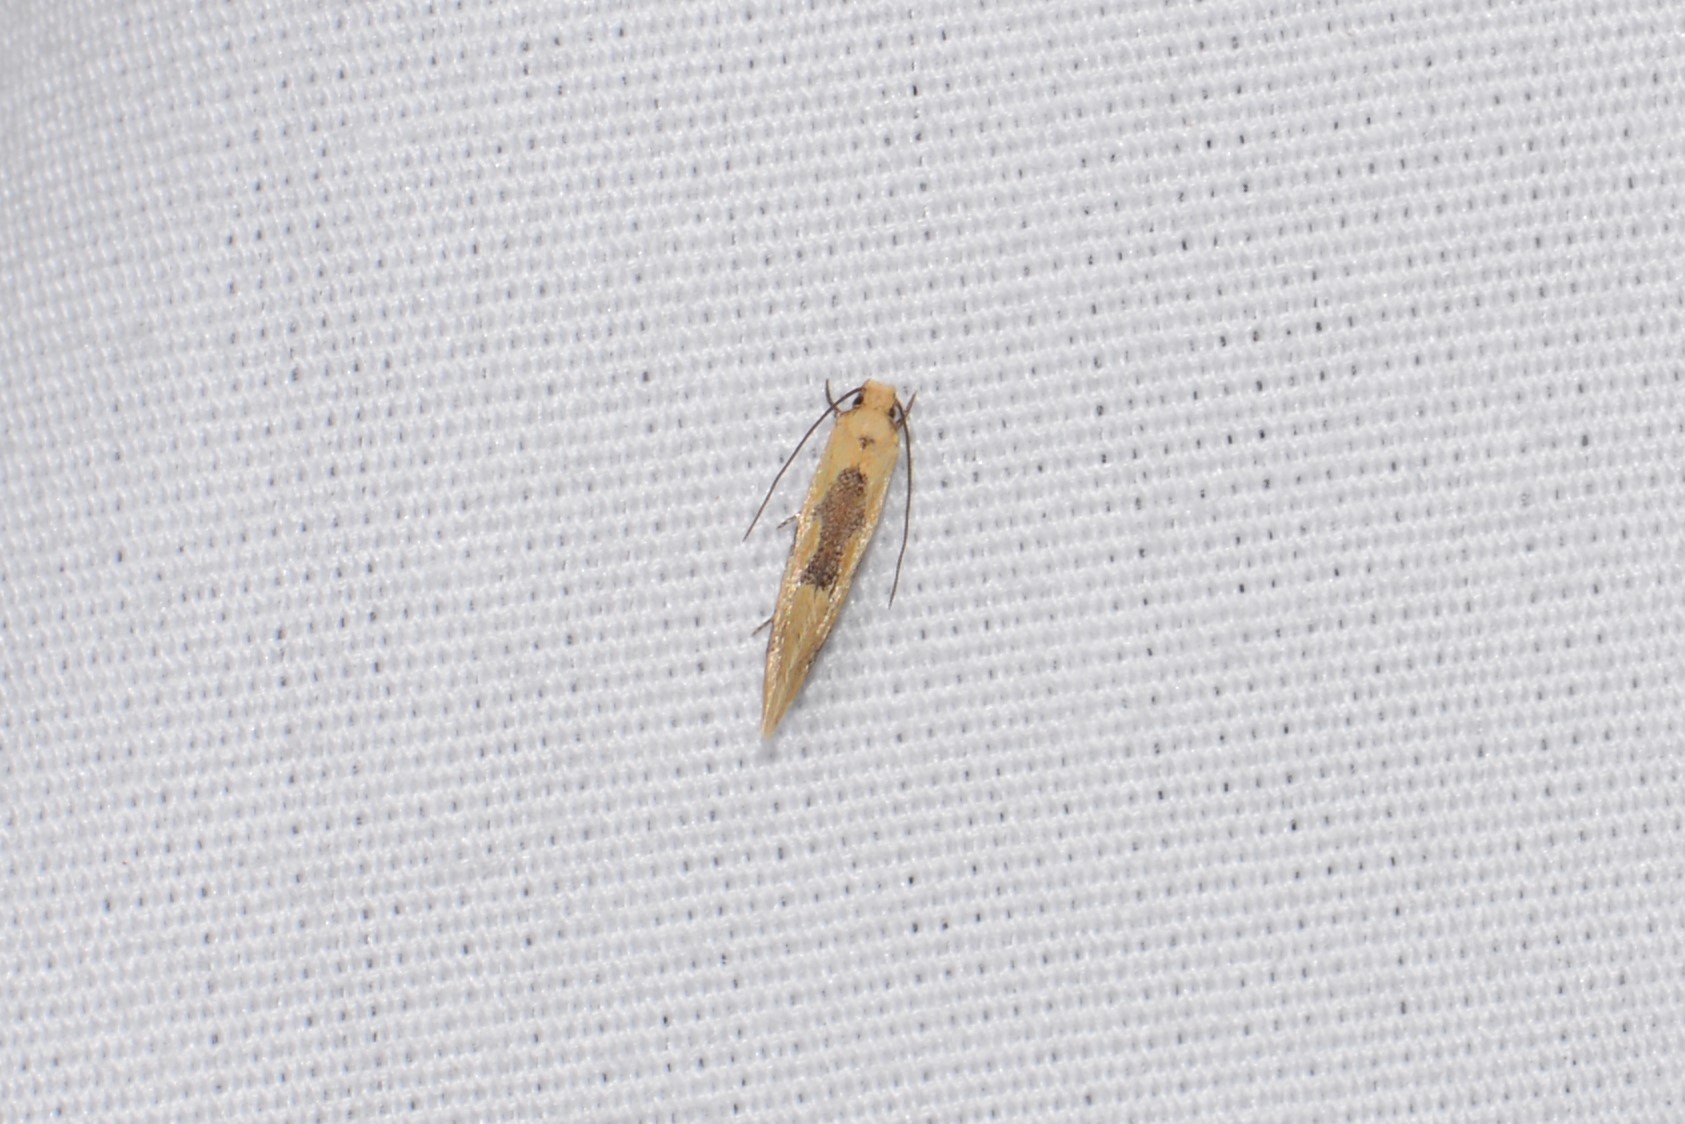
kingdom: Animalia
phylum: Arthropoda
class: Insecta
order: Lepidoptera
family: Meessiidae
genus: Hybroma
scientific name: Hybroma servulella
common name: Yellow wave moth
